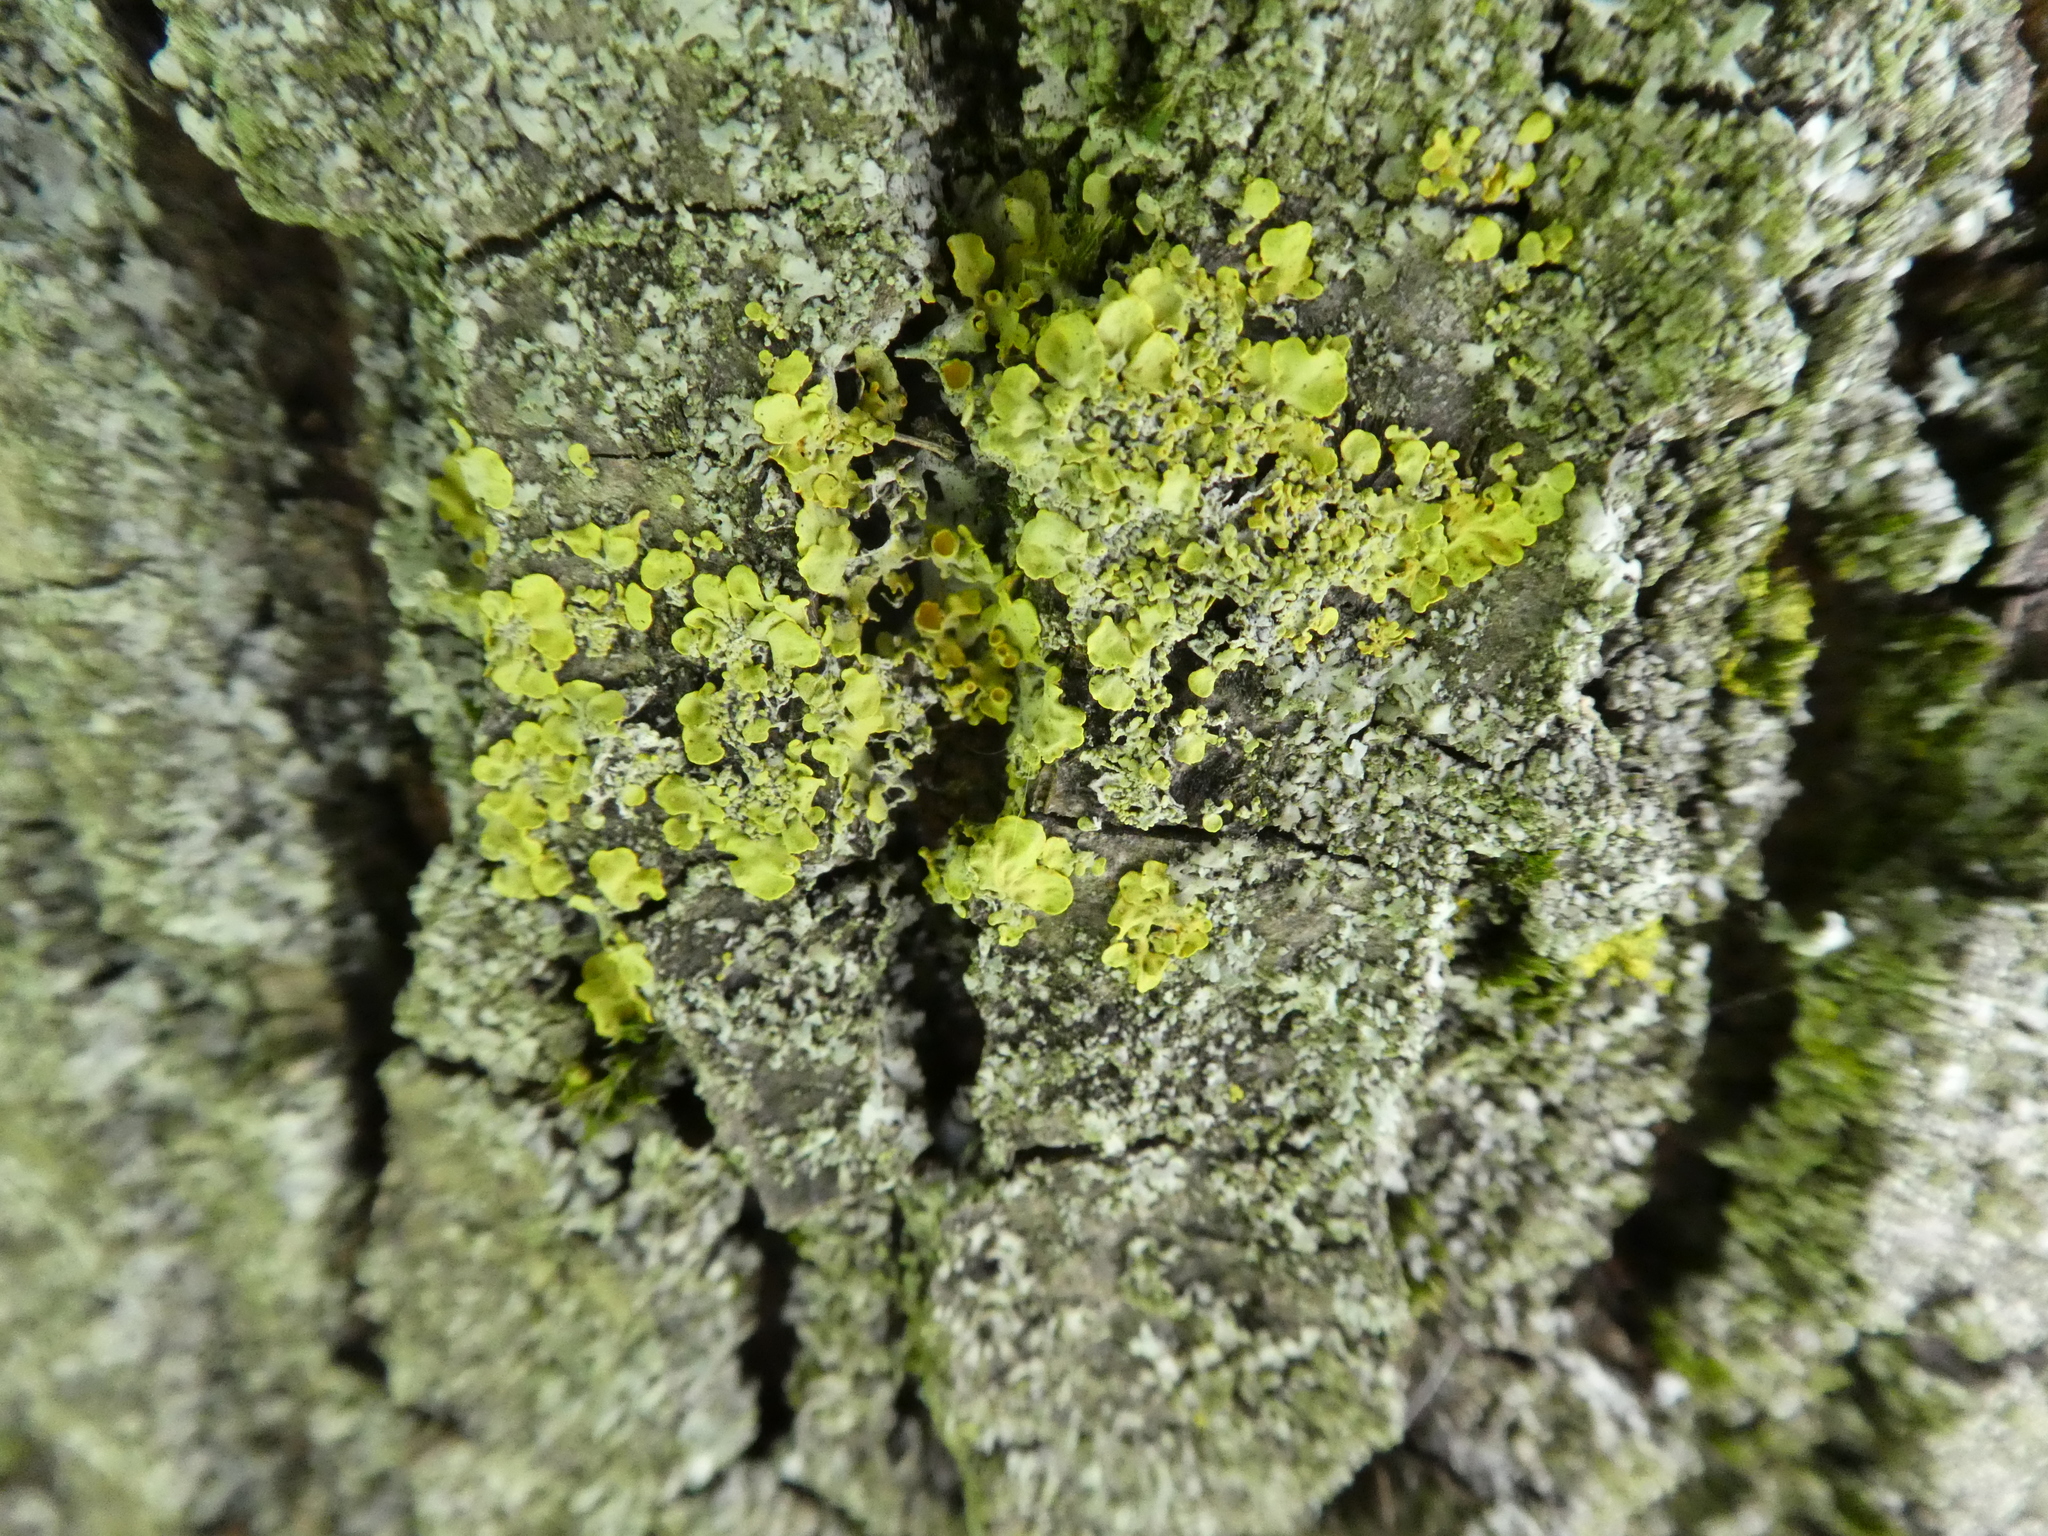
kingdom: Fungi
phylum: Ascomycota
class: Lecanoromycetes
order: Teloschistales
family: Teloschistaceae
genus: Xanthoria
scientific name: Xanthoria parietina
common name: Common orange lichen
